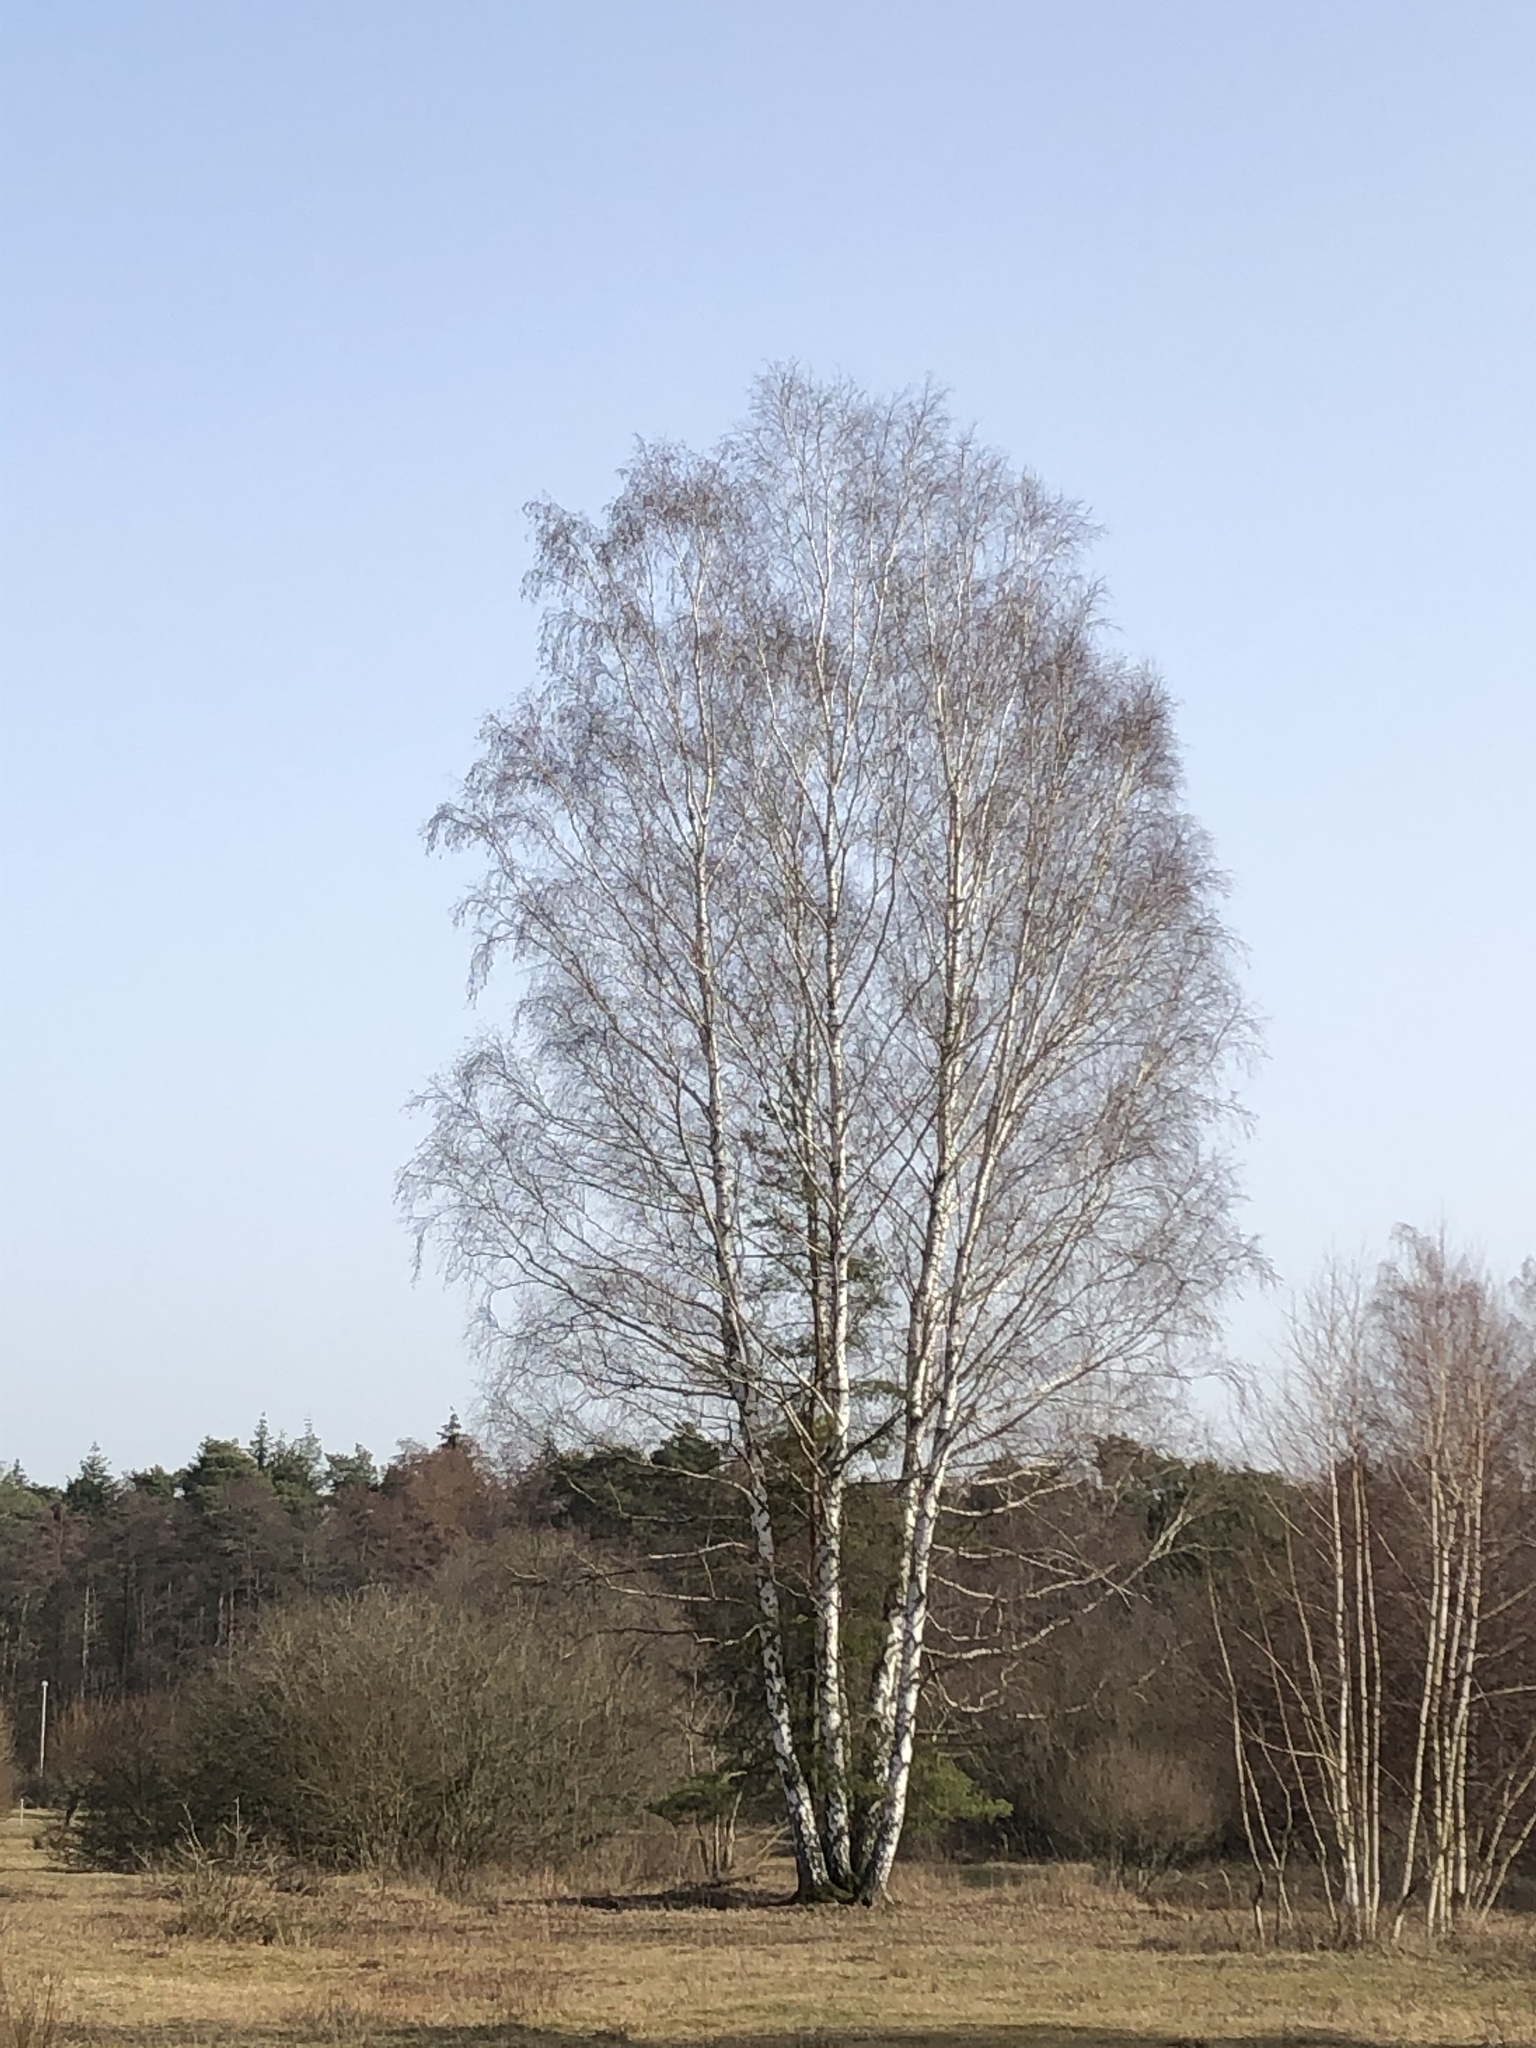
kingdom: Plantae
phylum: Tracheophyta
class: Magnoliopsida
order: Fagales
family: Betulaceae
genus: Betula
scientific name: Betula pendula
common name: Silver birch
